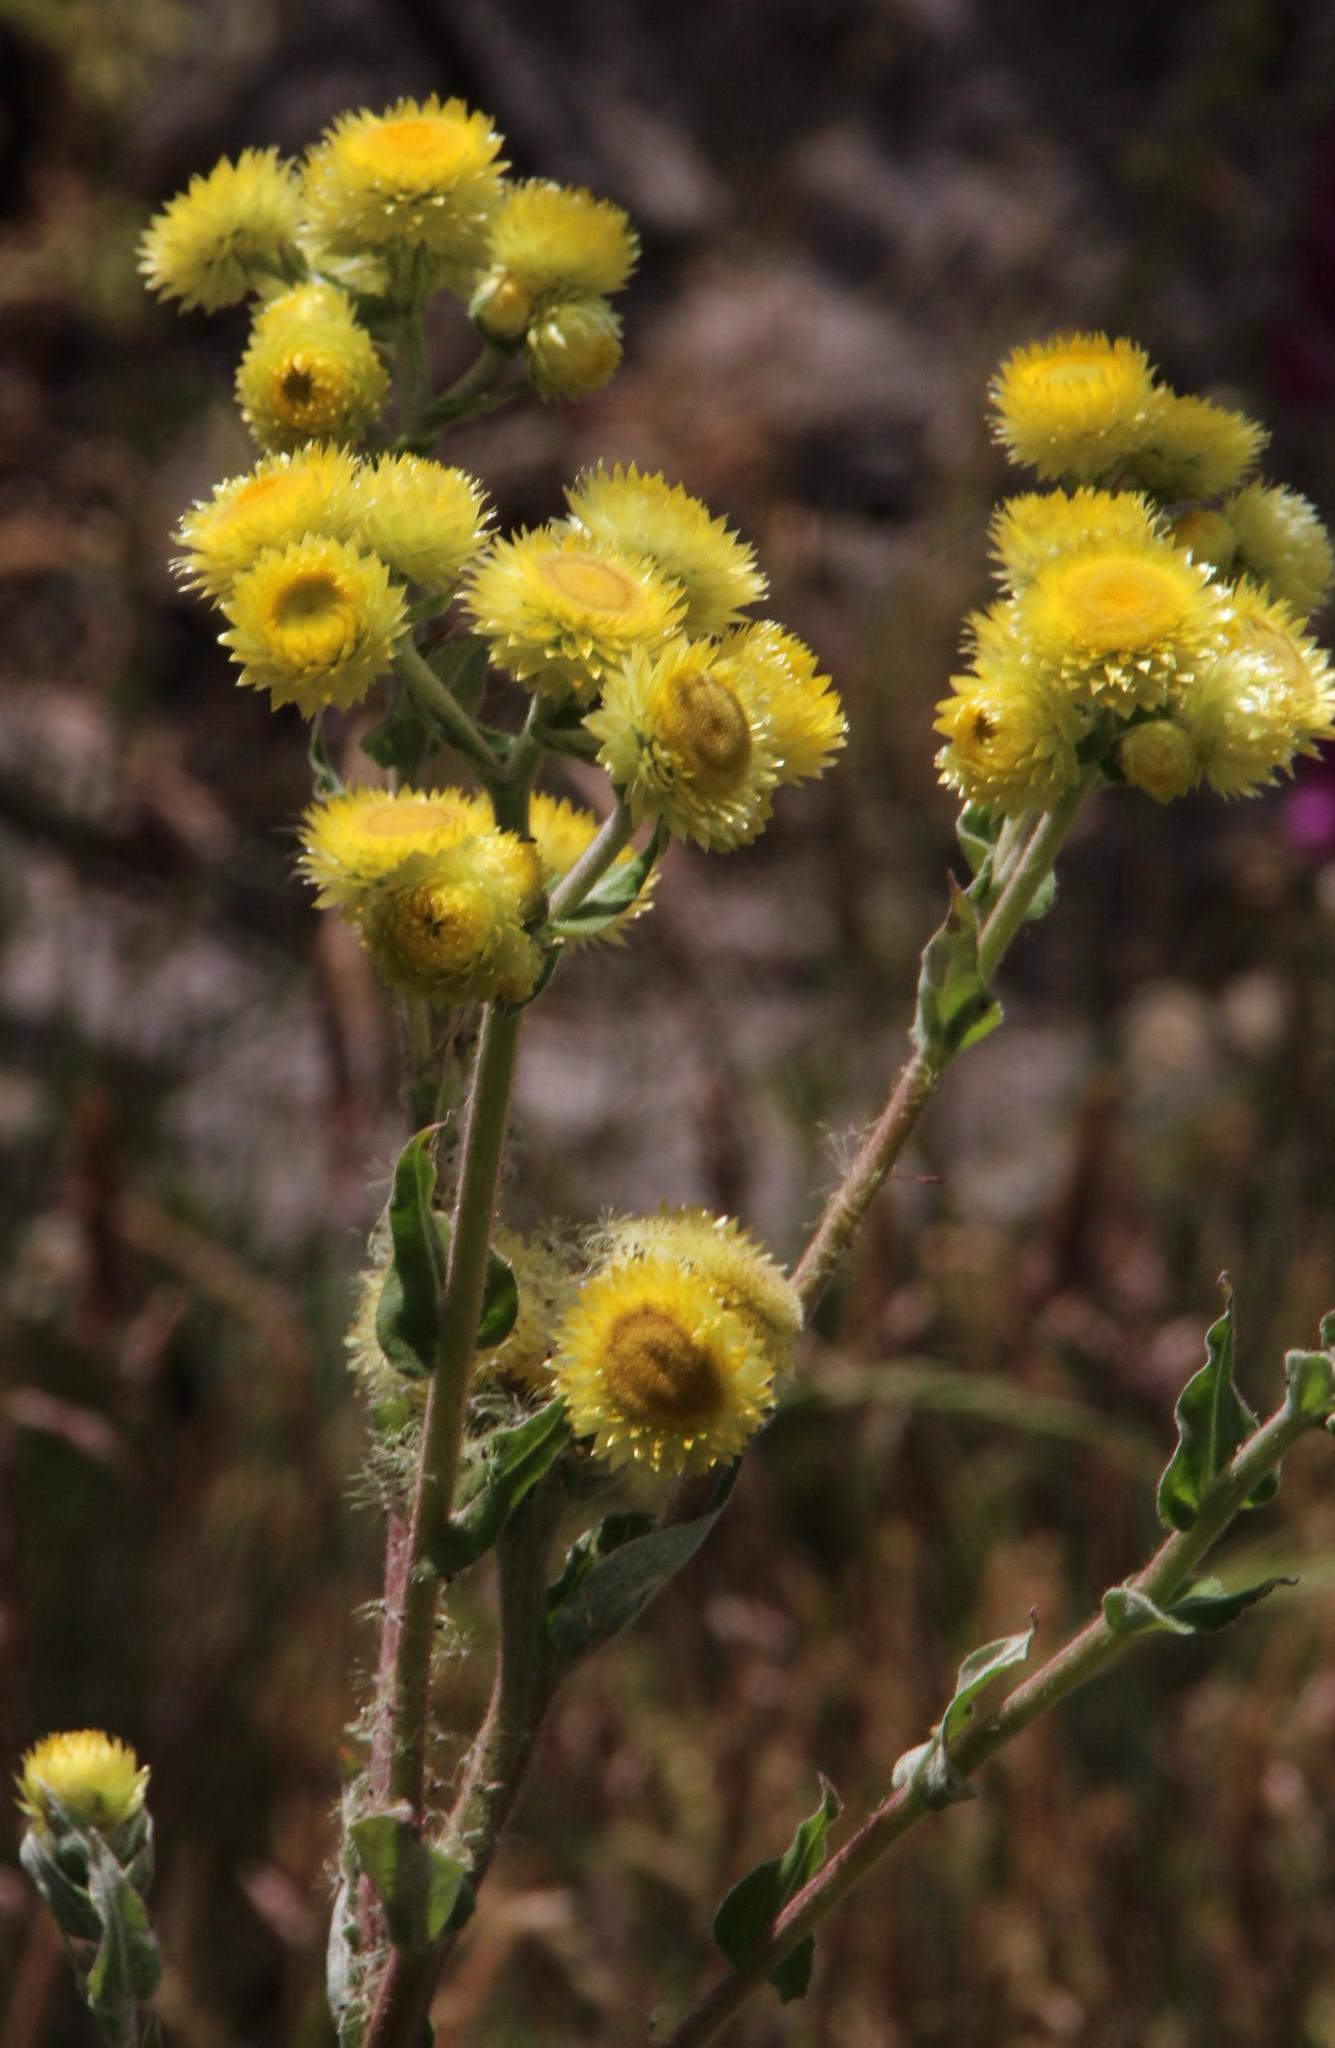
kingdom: Plantae
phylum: Tracheophyta
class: Magnoliopsida
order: Asterales
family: Asteraceae
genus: Helichrysum
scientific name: Helichrysum foetidum
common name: Stinking everlasting
